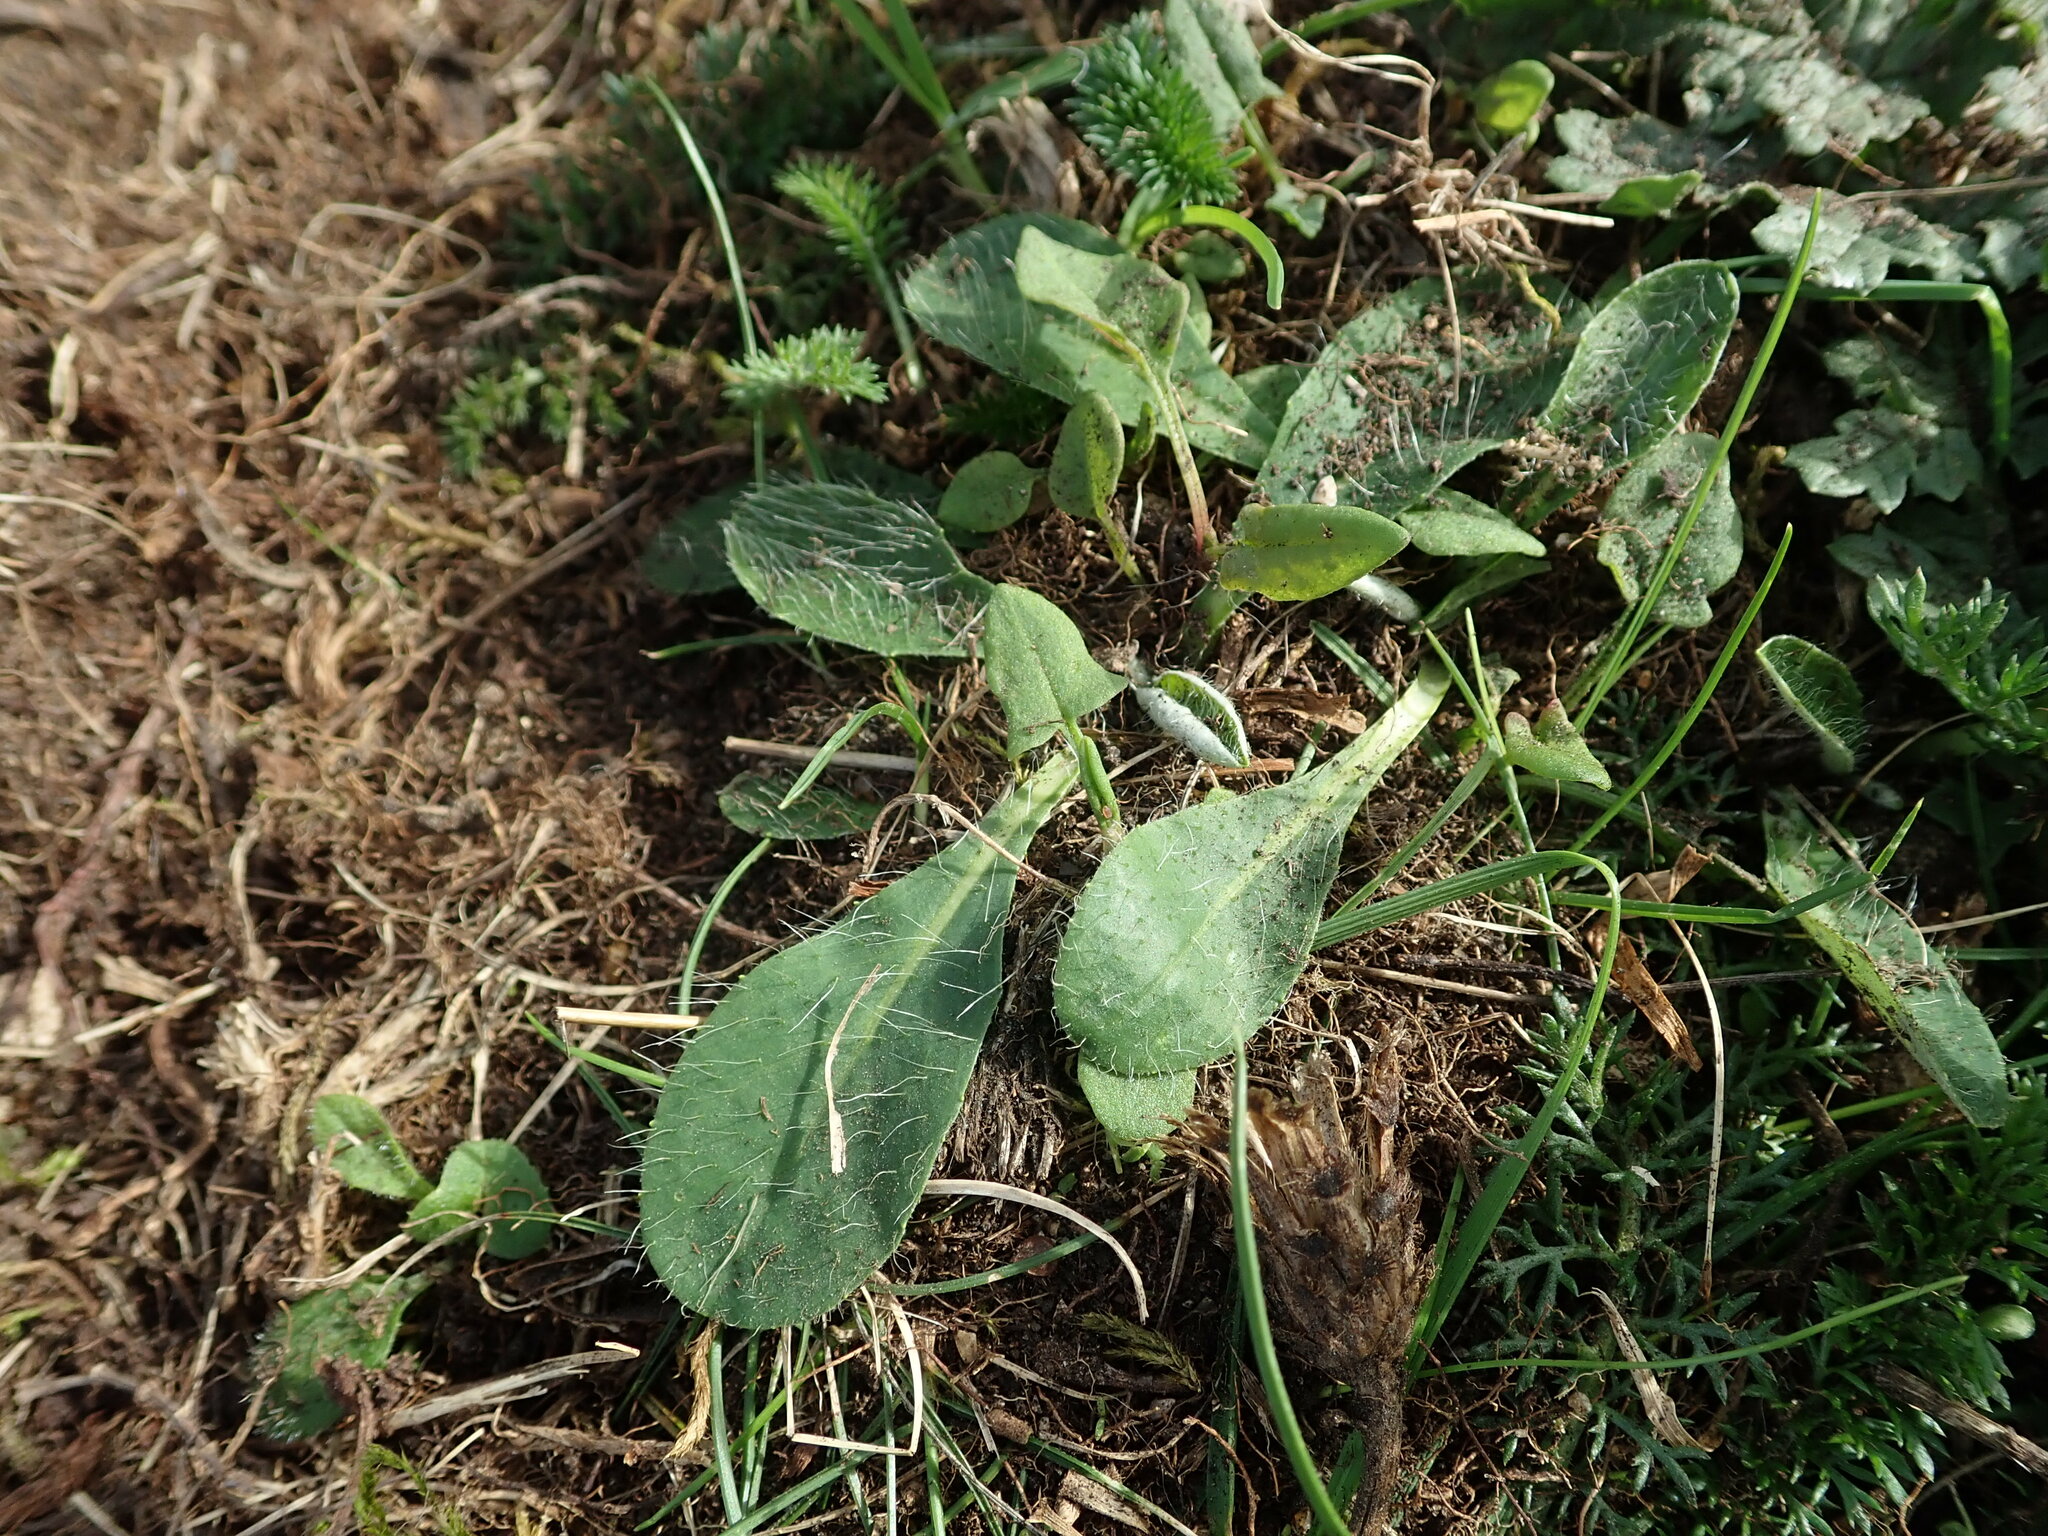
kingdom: Plantae
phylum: Tracheophyta
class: Magnoliopsida
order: Asterales
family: Asteraceae
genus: Pilosella
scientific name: Pilosella officinarum
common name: Mouse-ear hawkweed
